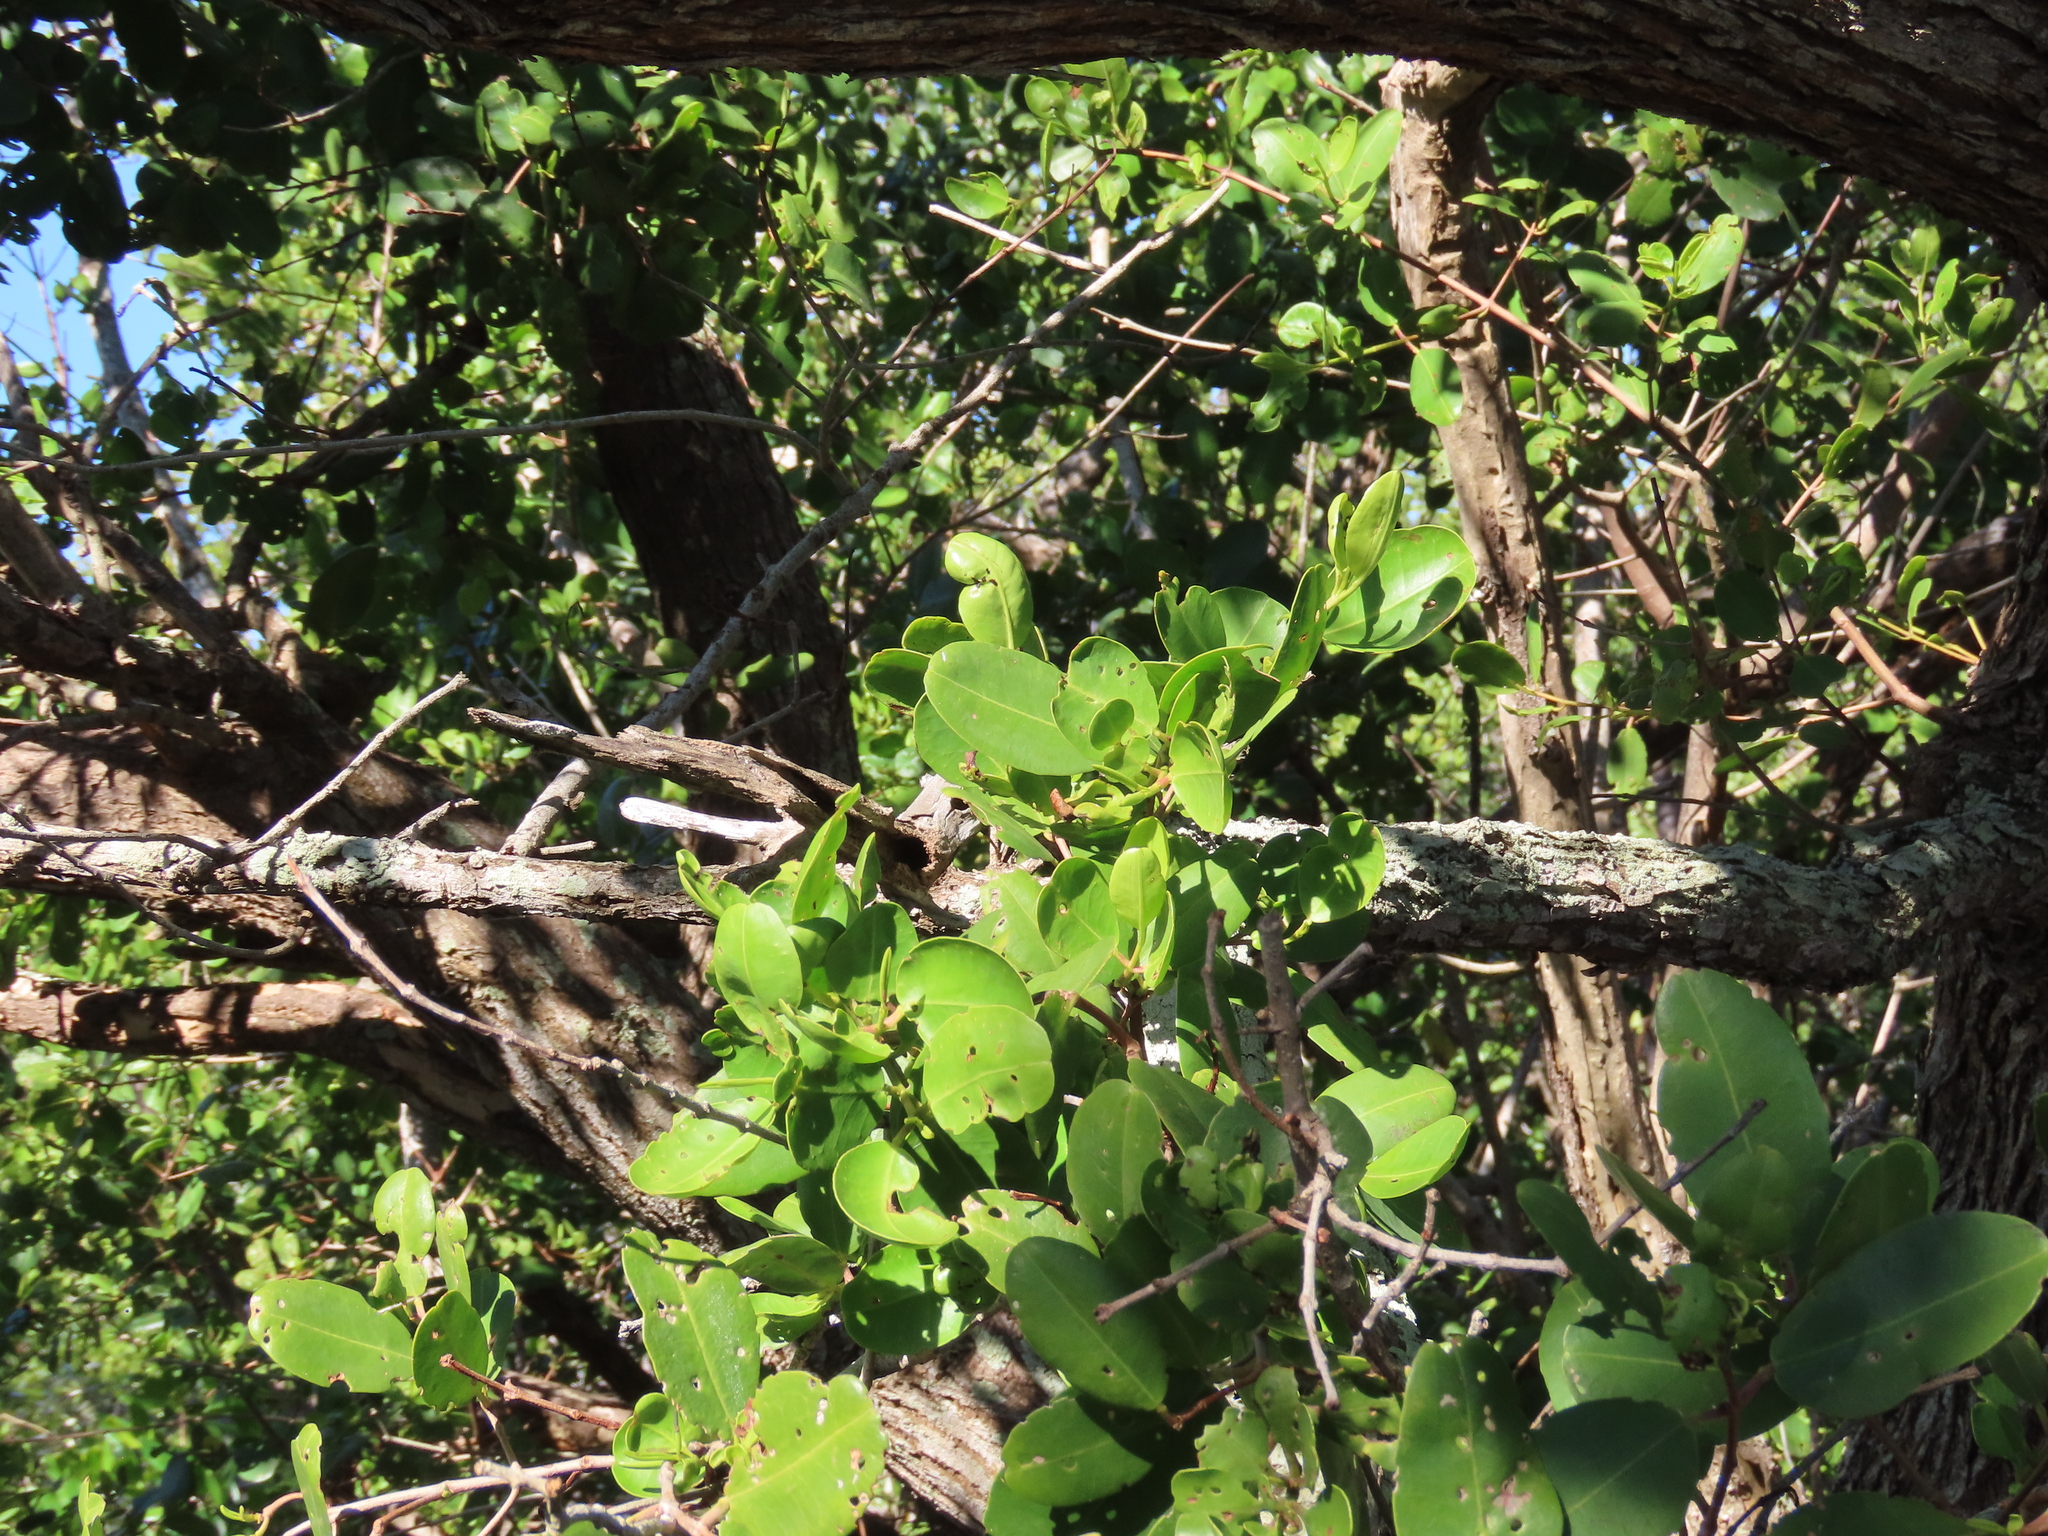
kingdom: Plantae
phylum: Tracheophyta
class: Magnoliopsida
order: Myrtales
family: Combretaceae
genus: Laguncularia
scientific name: Laguncularia racemosa
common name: White mangrove
